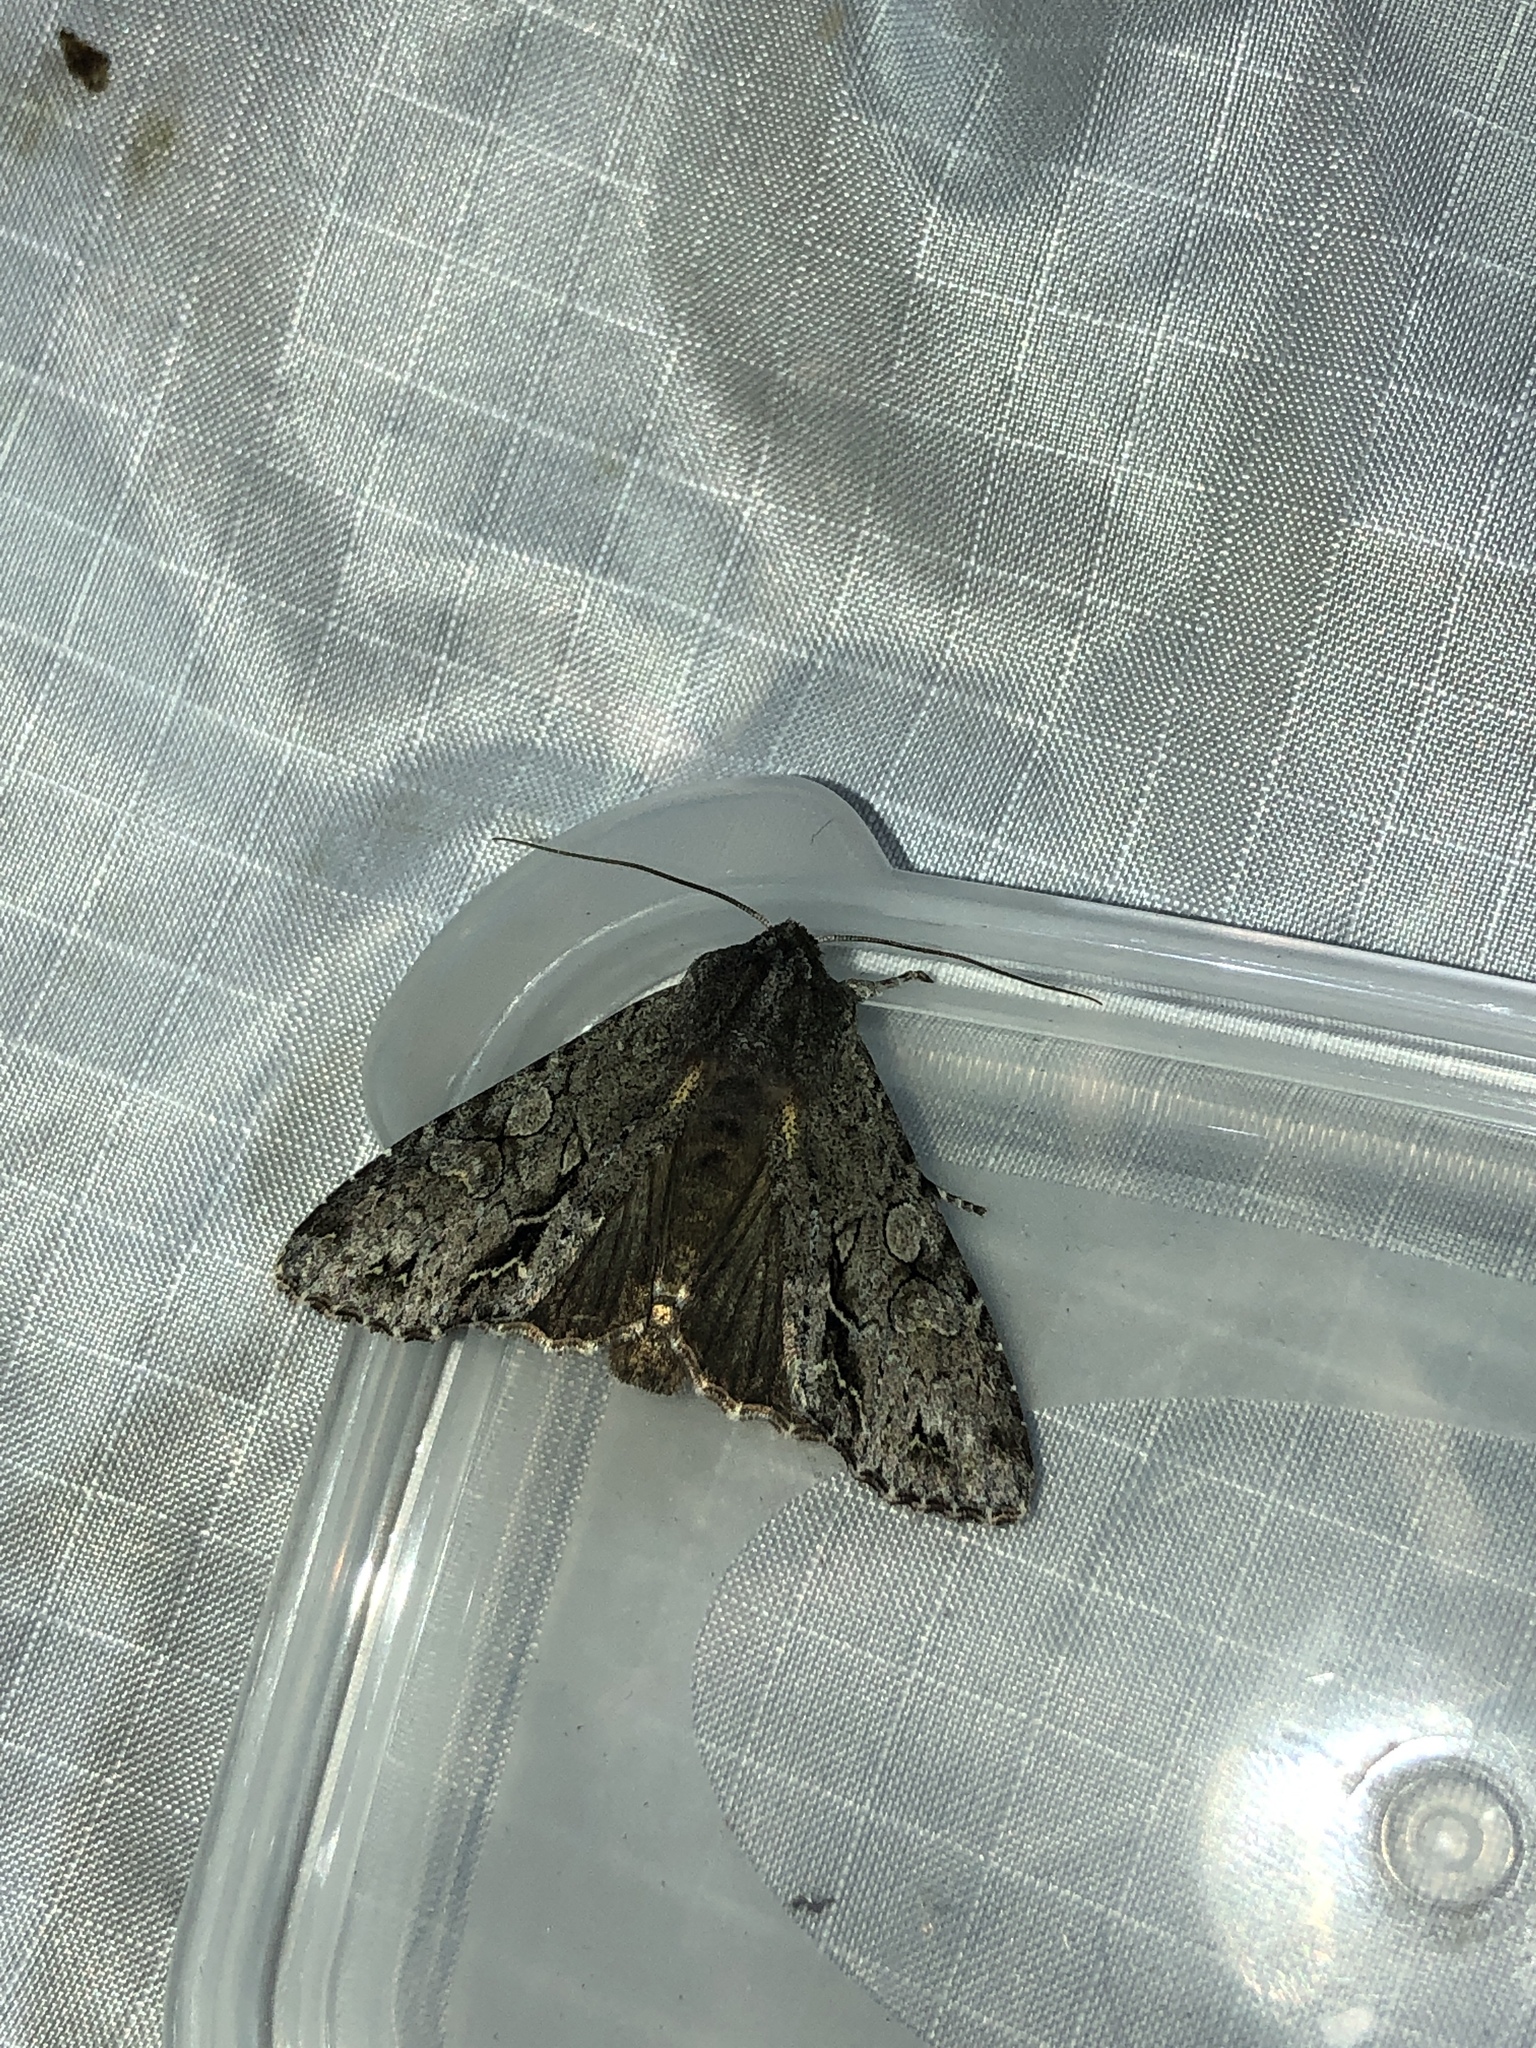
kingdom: Animalia
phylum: Arthropoda
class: Insecta
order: Lepidoptera
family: Noctuidae
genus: Ichneutica
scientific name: Ichneutica
